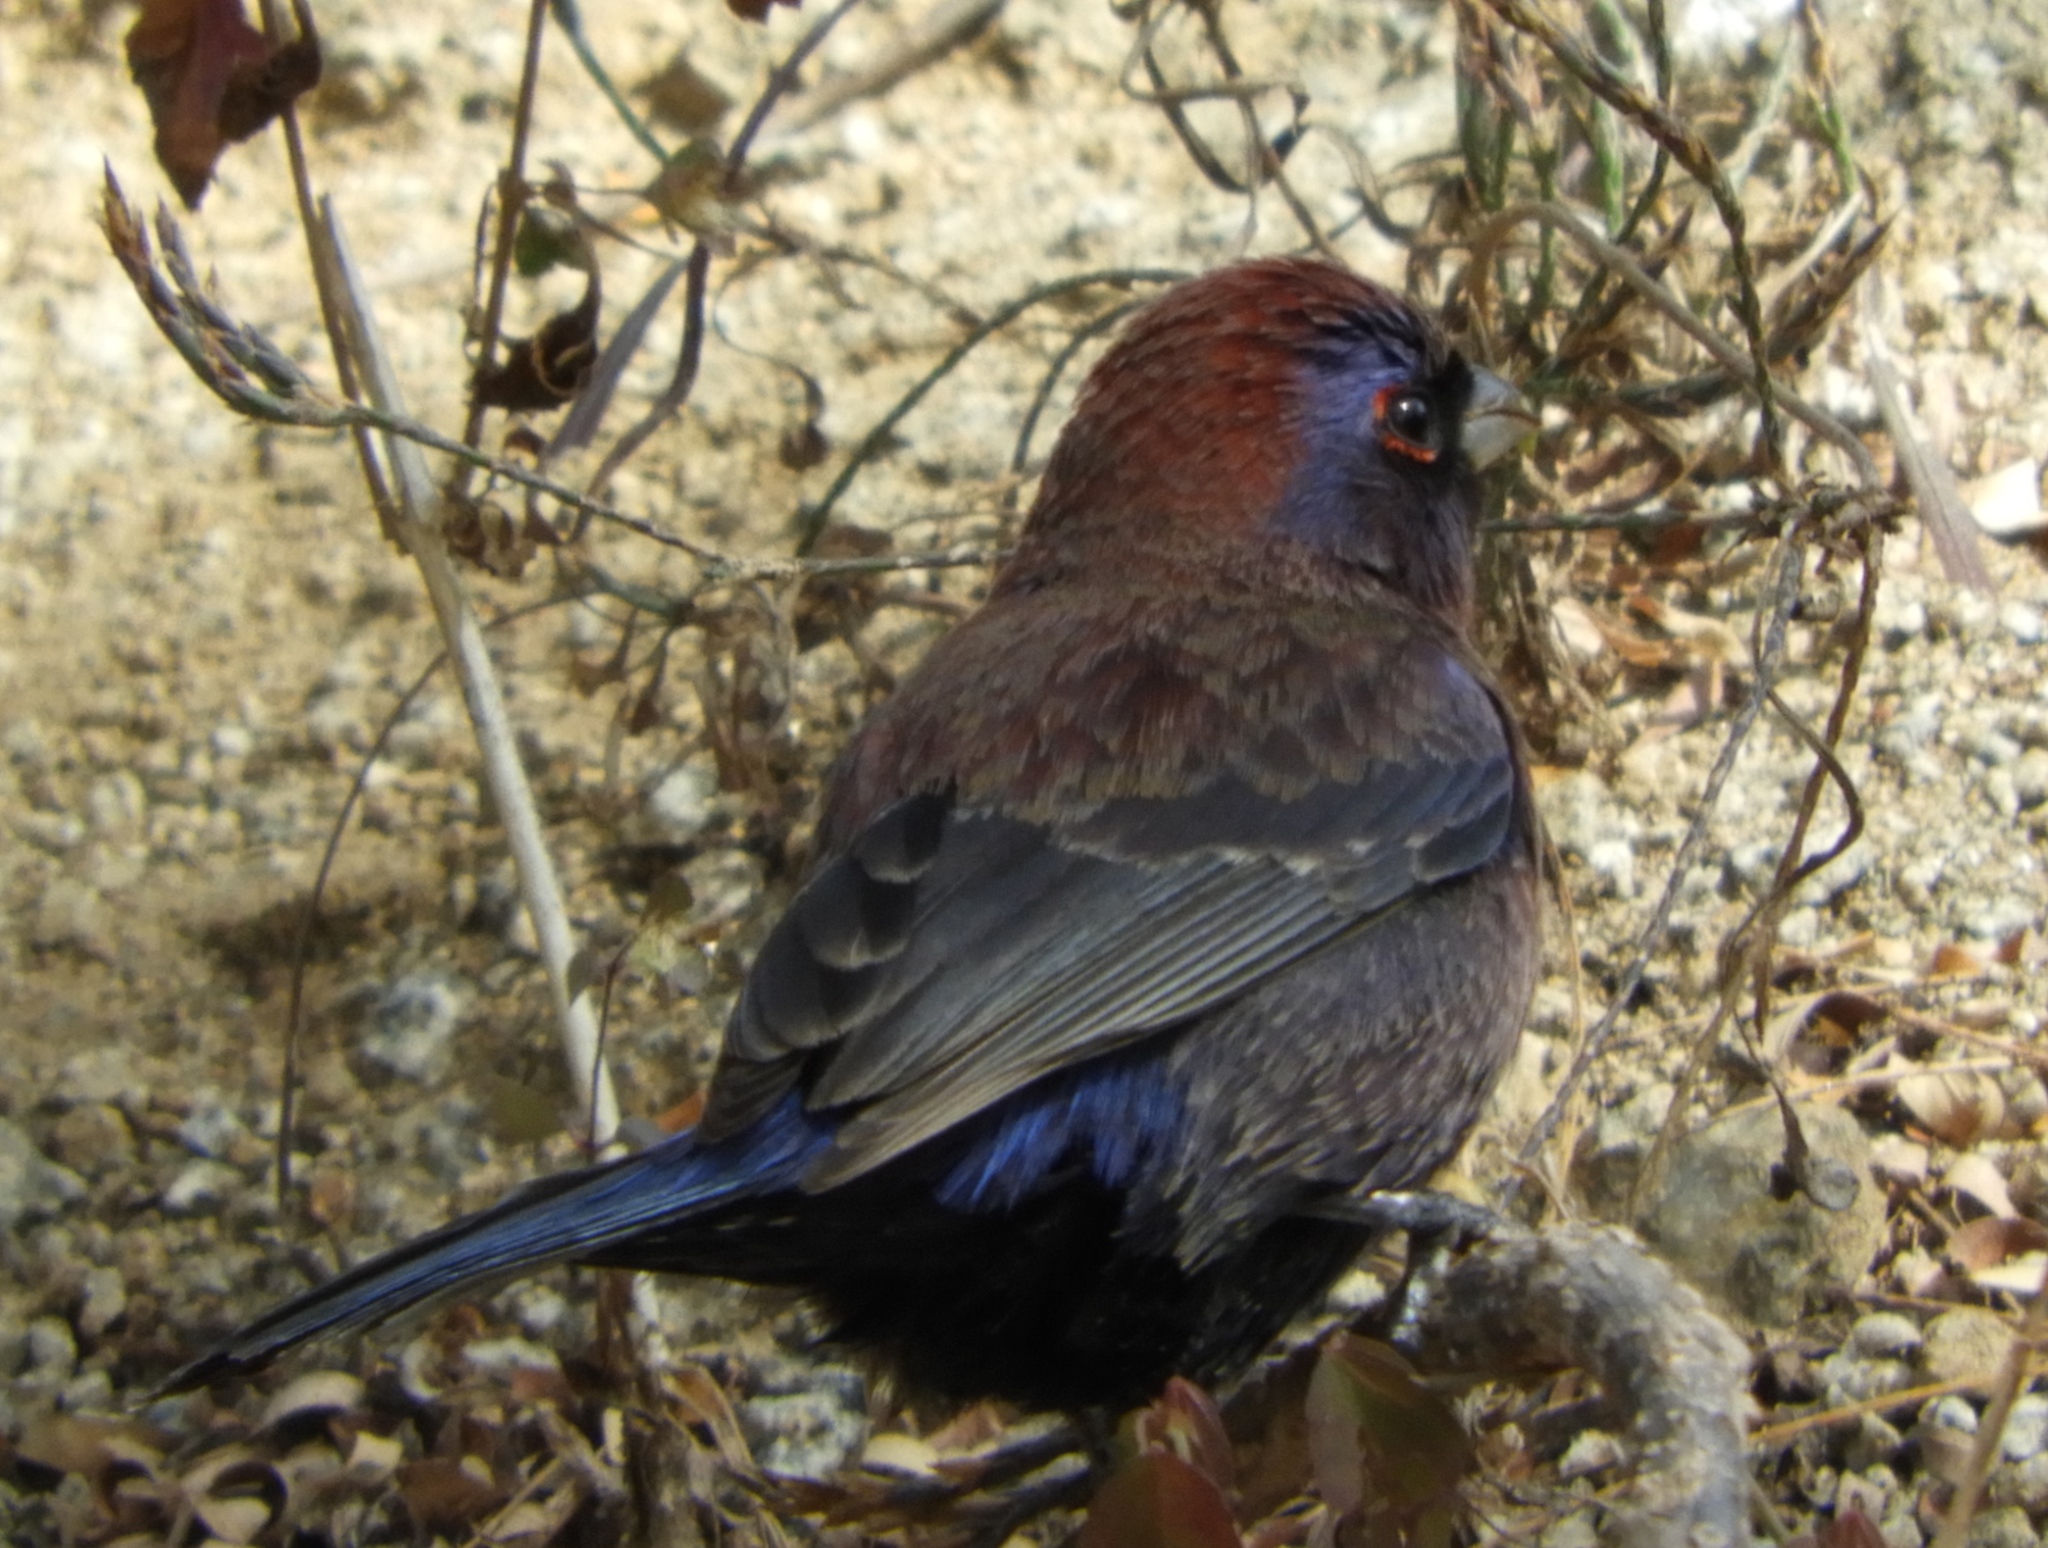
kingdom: Animalia
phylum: Chordata
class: Aves
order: Passeriformes
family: Cardinalidae
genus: Passerina
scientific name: Passerina versicolor
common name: Varied bunting
